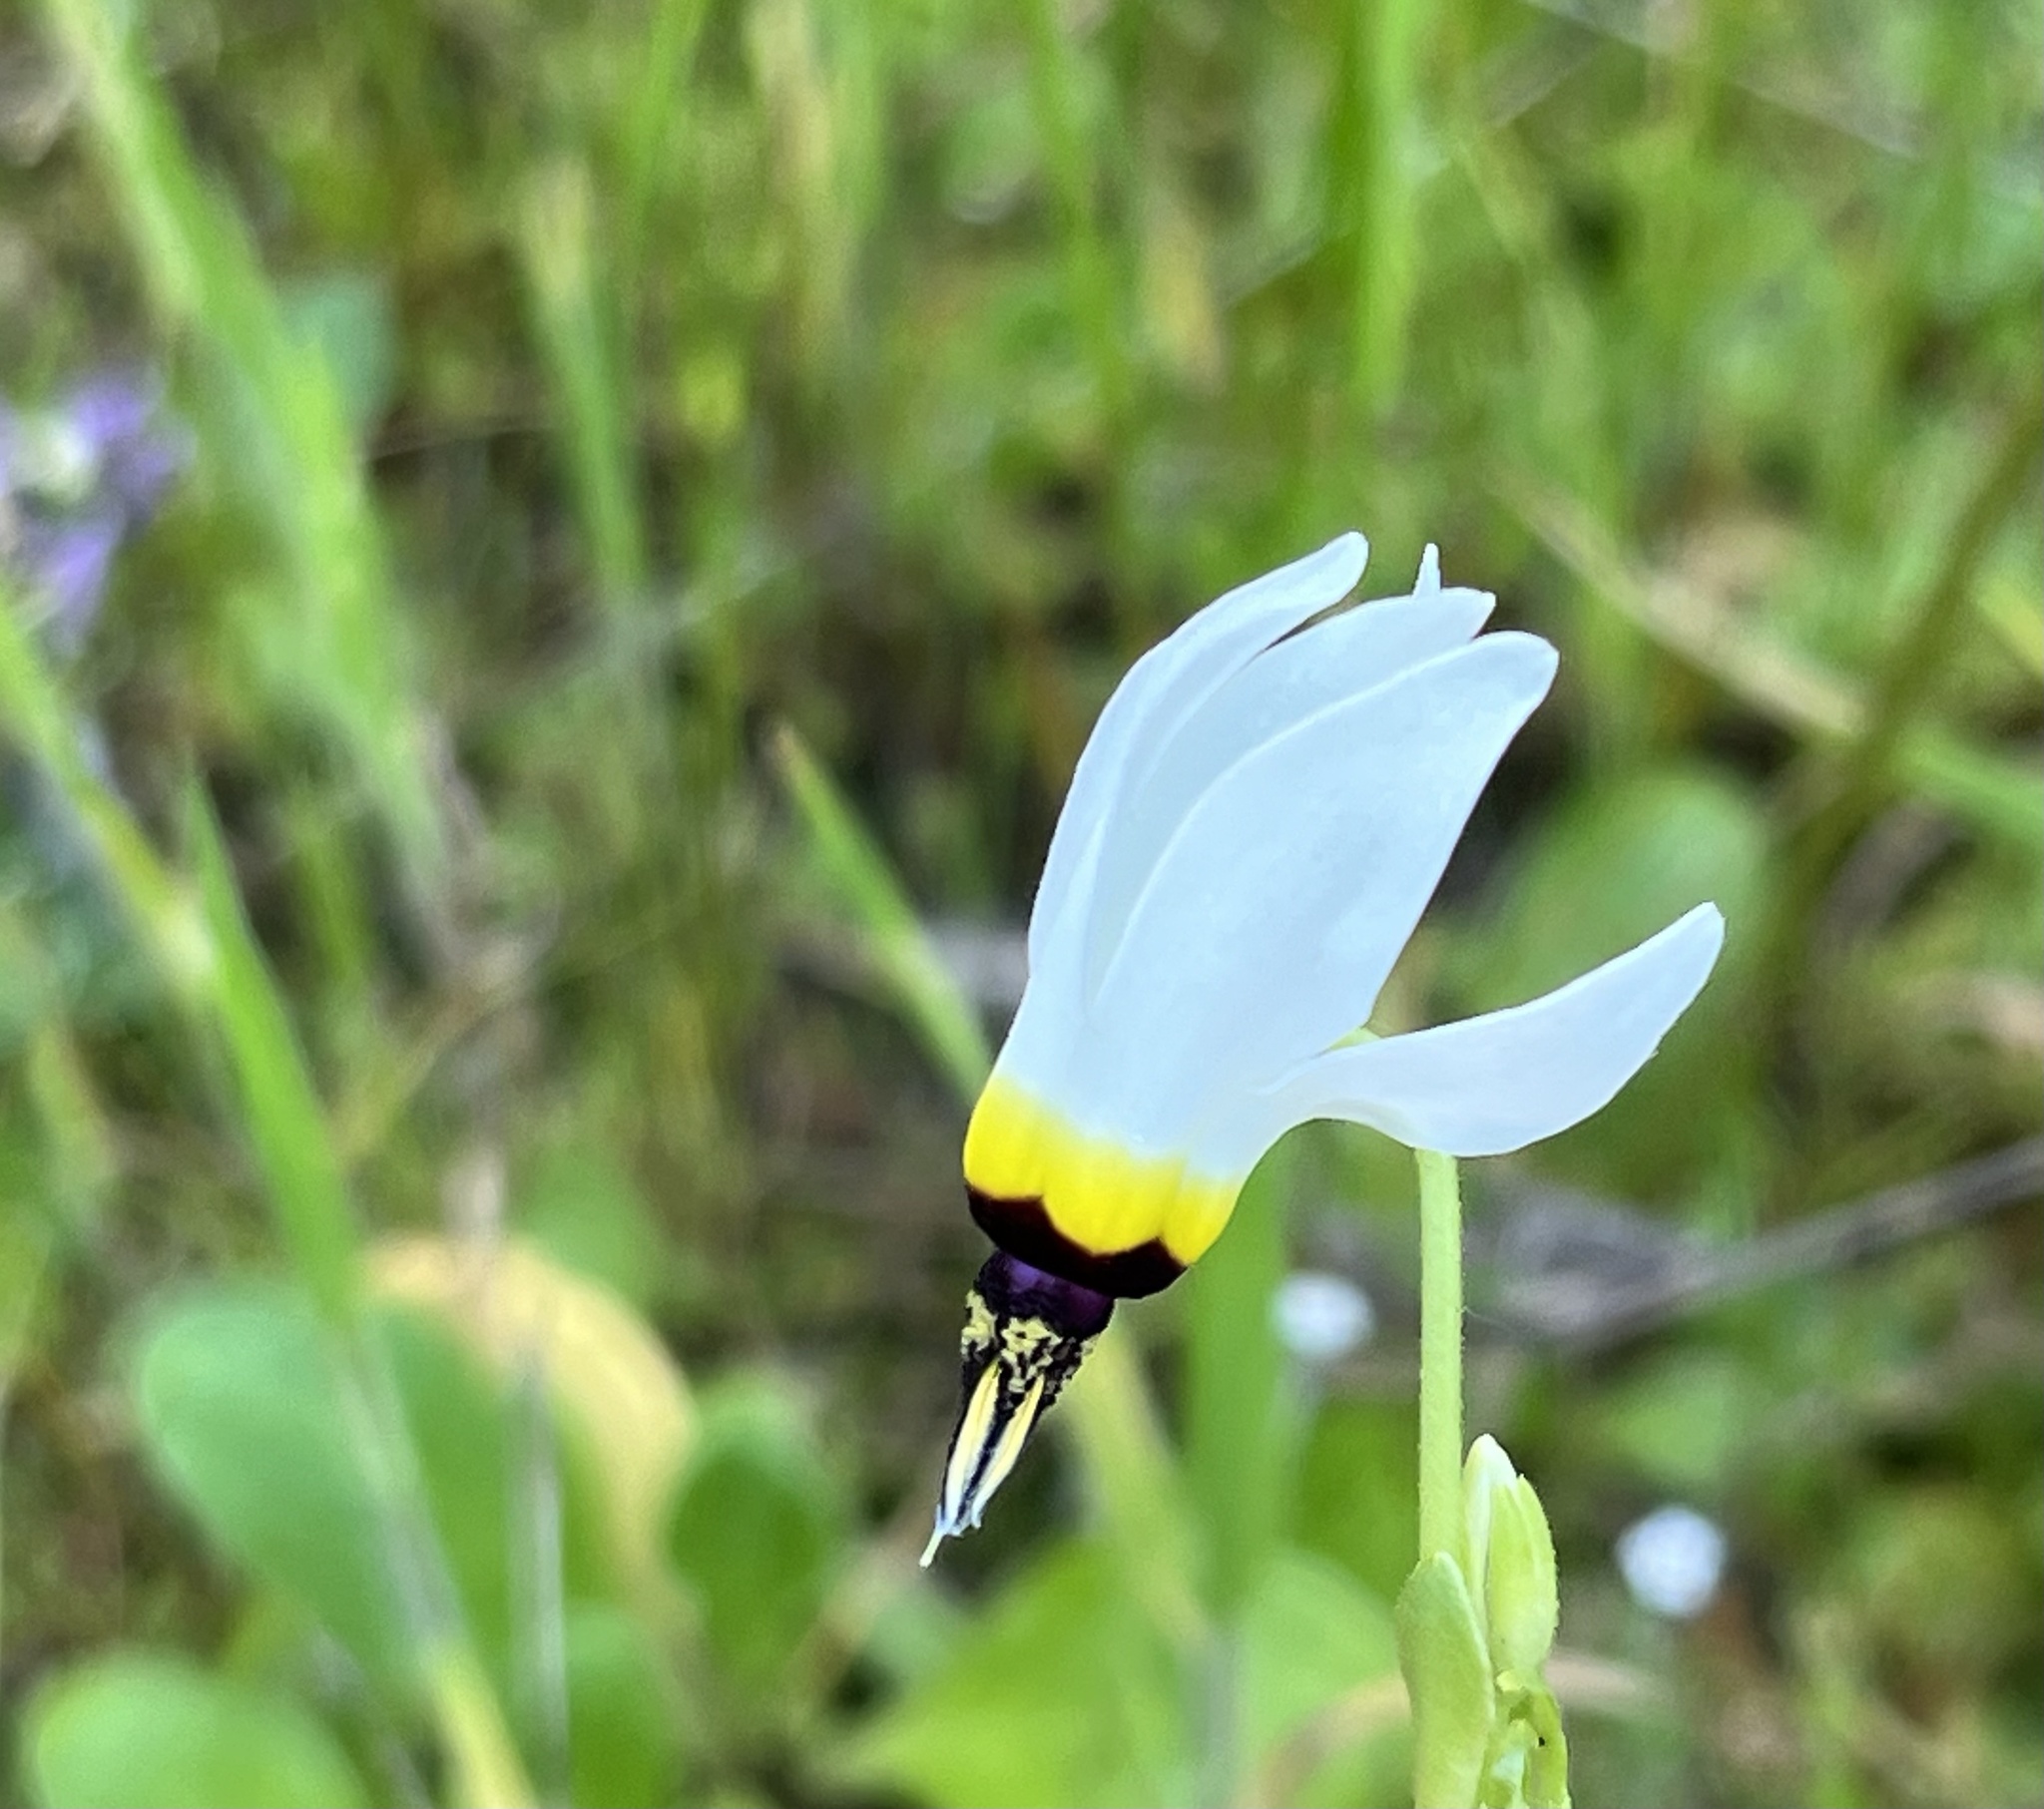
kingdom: Plantae
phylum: Tracheophyta
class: Magnoliopsida
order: Ericales
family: Primulaceae
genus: Dodecatheon
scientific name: Dodecatheon clevelandii
